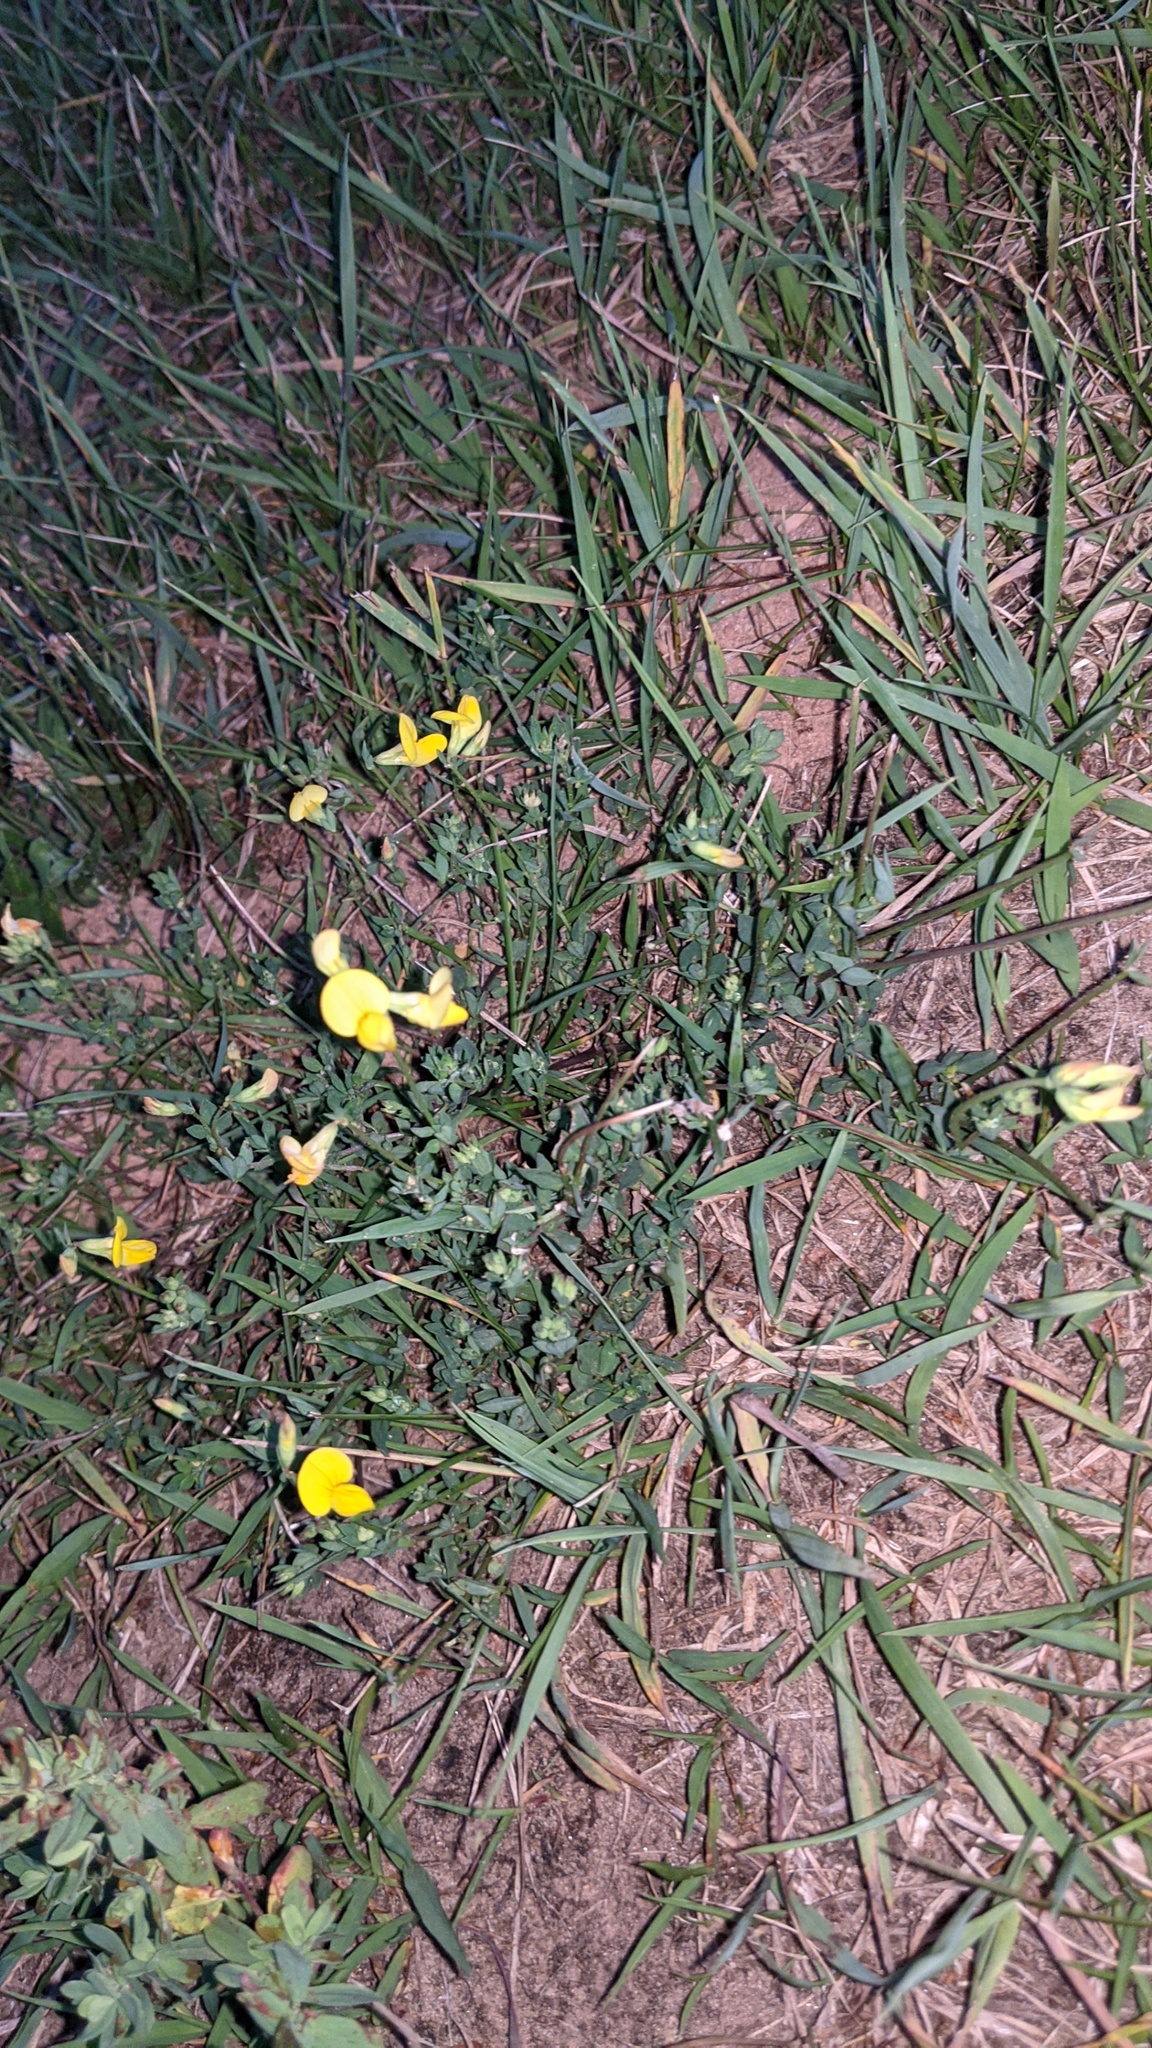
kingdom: Plantae
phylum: Tracheophyta
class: Magnoliopsida
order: Fabales
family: Fabaceae
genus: Lotus
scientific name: Lotus corniculatus
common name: Common bird's-foot-trefoil
